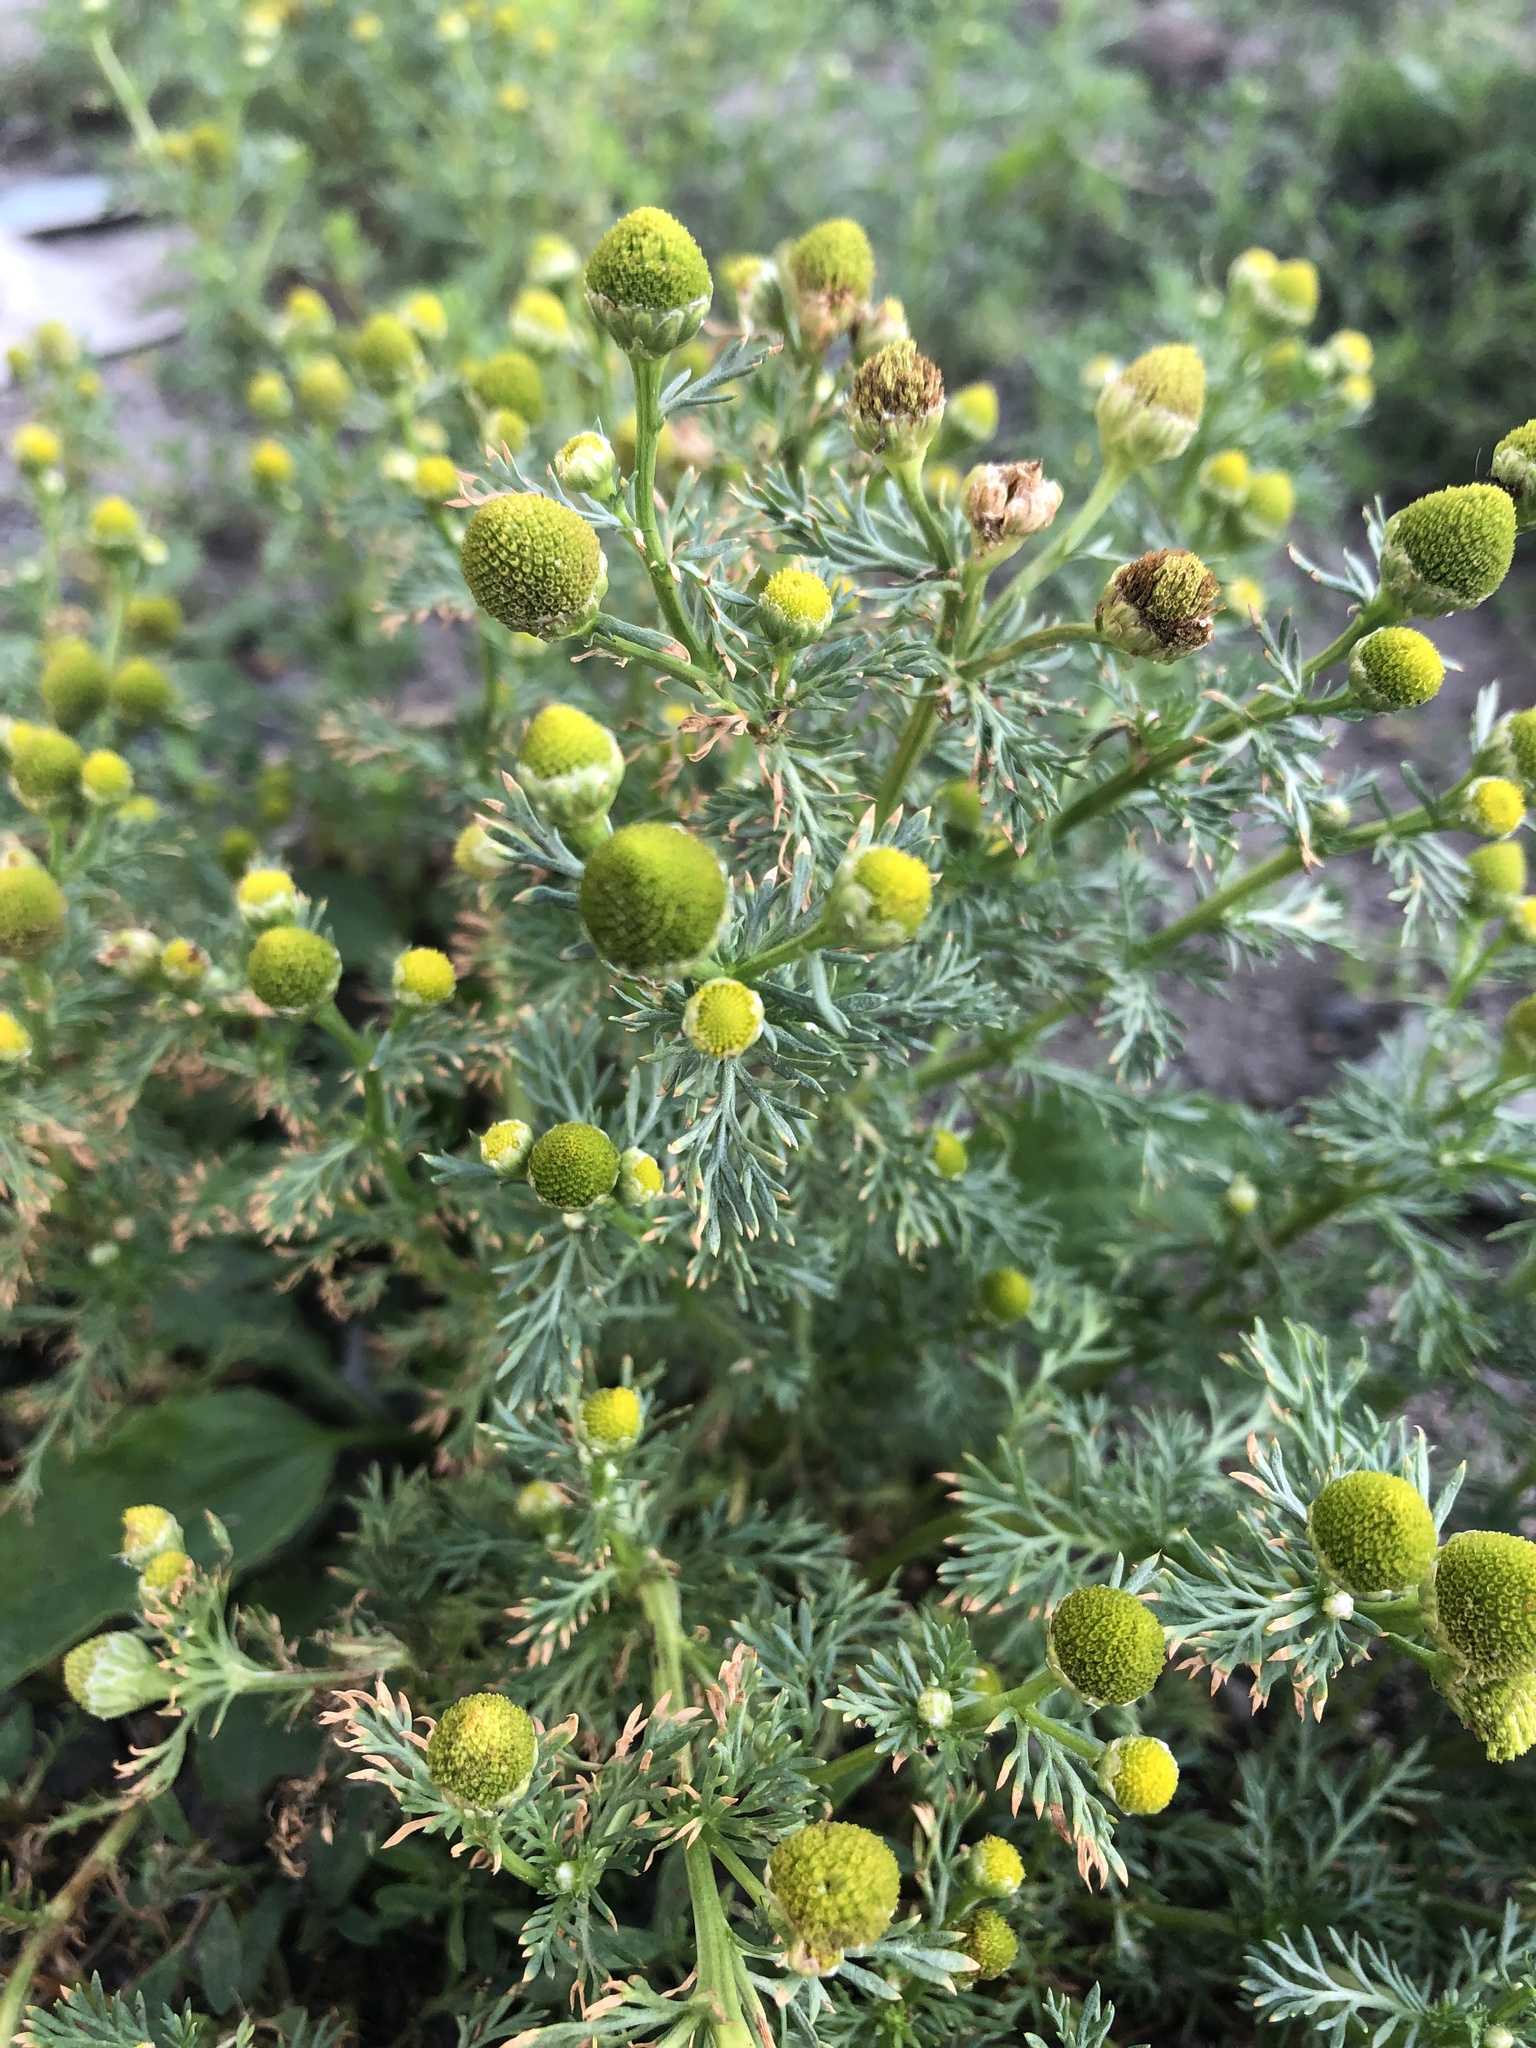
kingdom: Plantae
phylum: Tracheophyta
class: Magnoliopsida
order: Asterales
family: Asteraceae
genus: Matricaria
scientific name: Matricaria discoidea
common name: Disc mayweed
